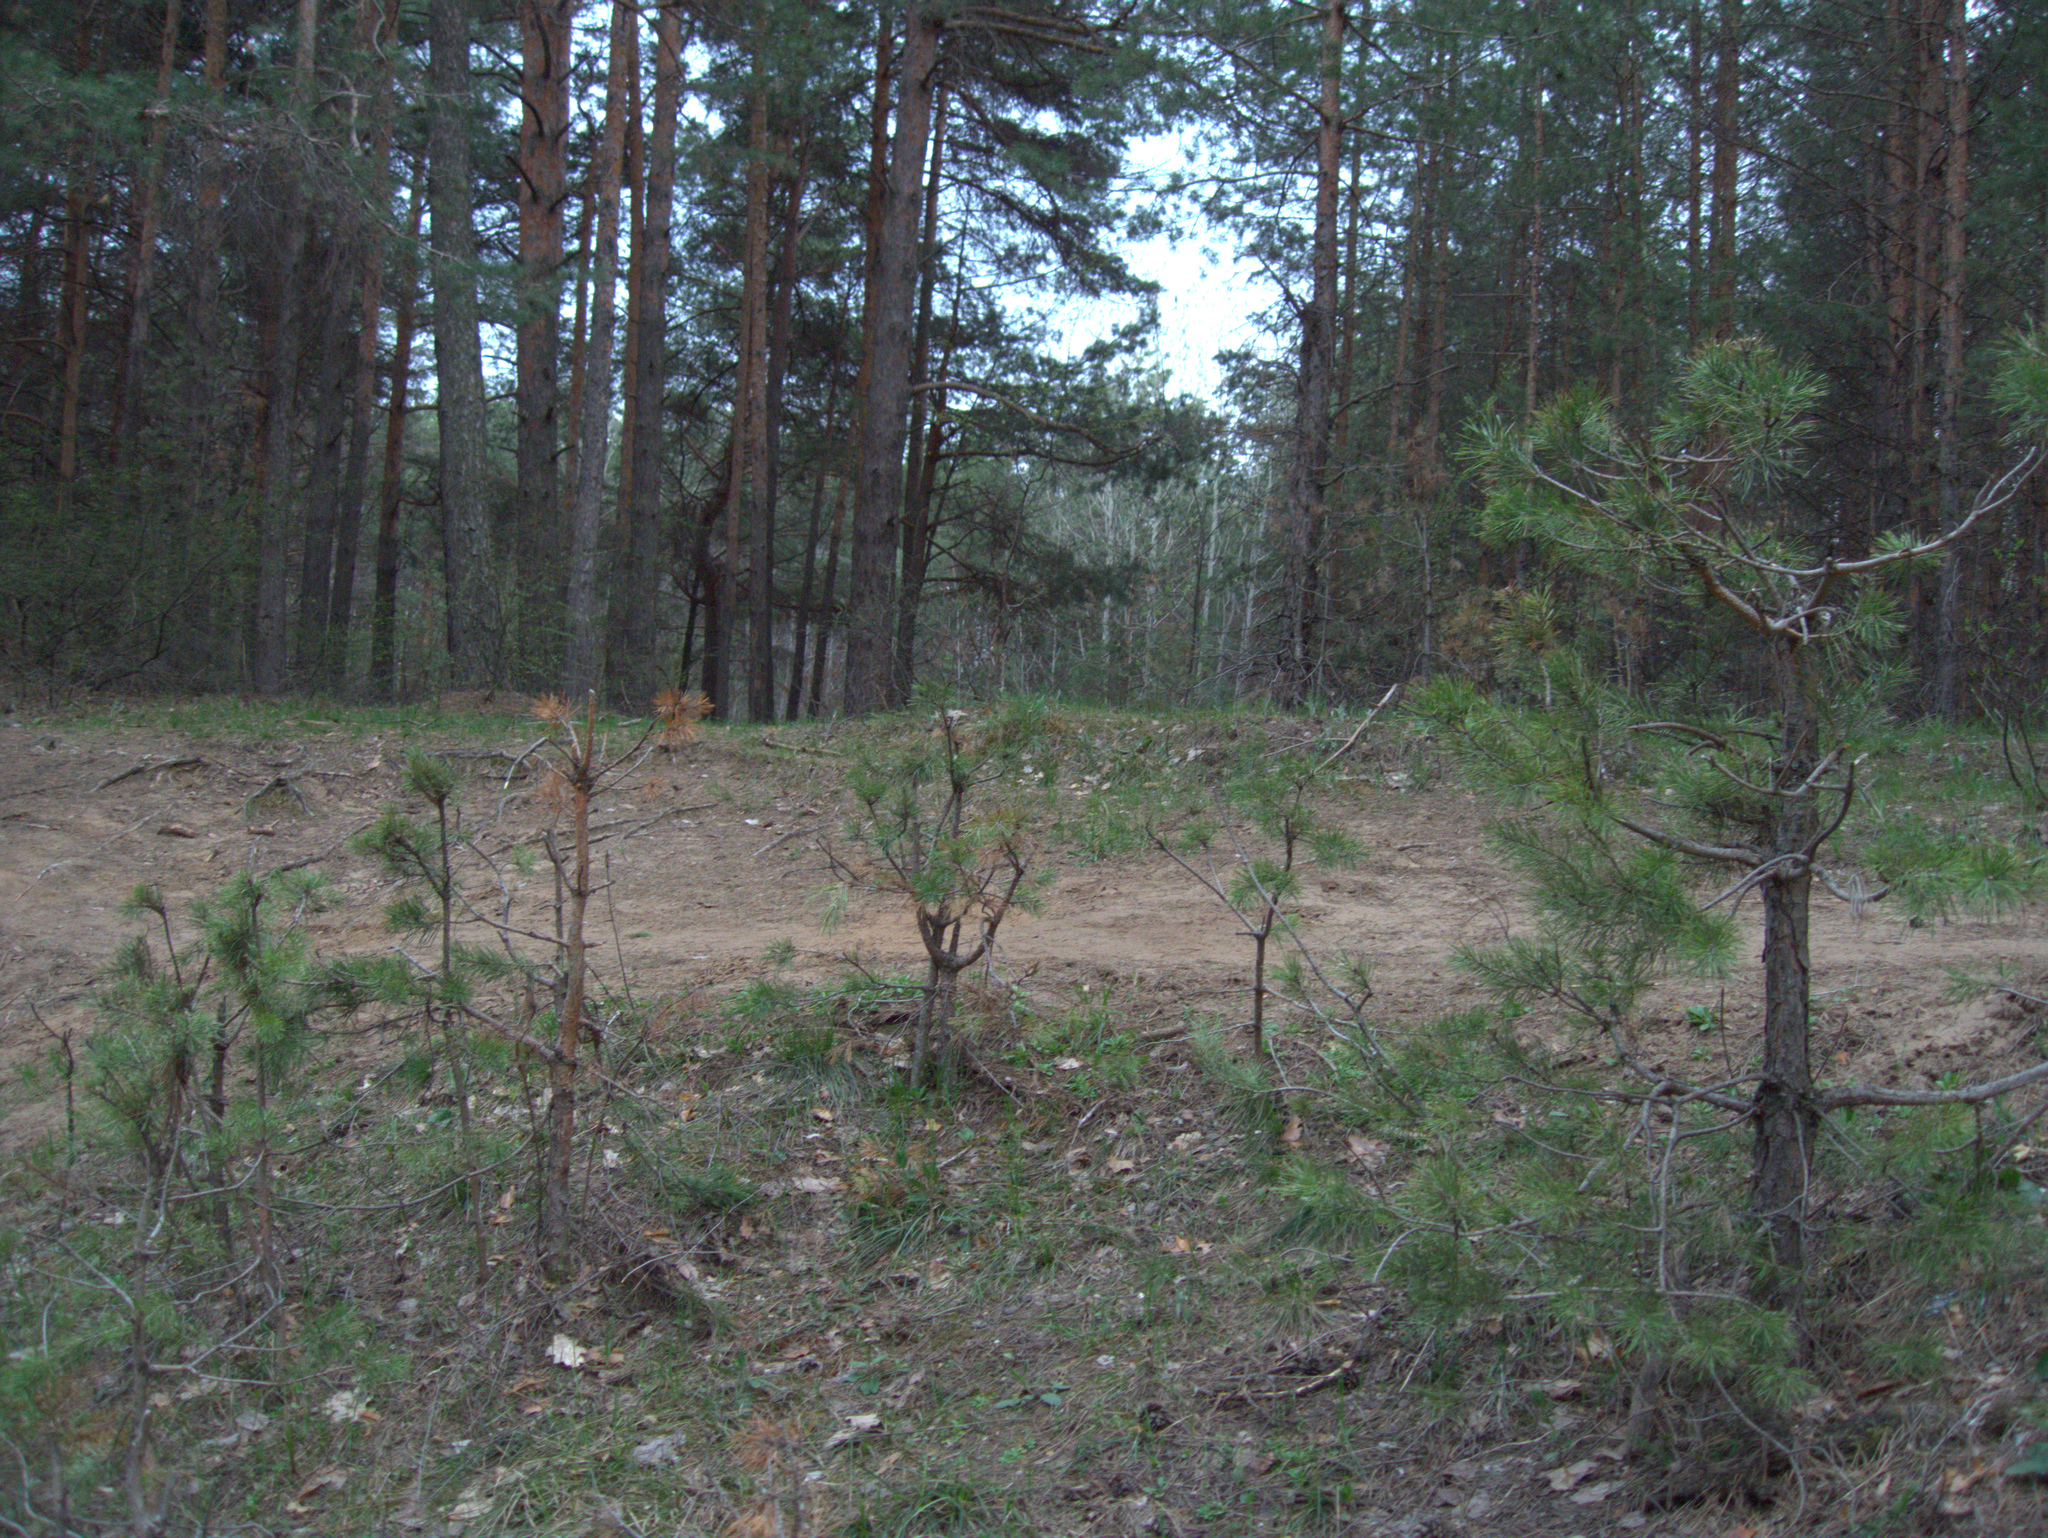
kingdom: Plantae
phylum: Tracheophyta
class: Pinopsida
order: Pinales
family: Pinaceae
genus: Pinus
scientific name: Pinus sylvestris
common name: Scots pine
